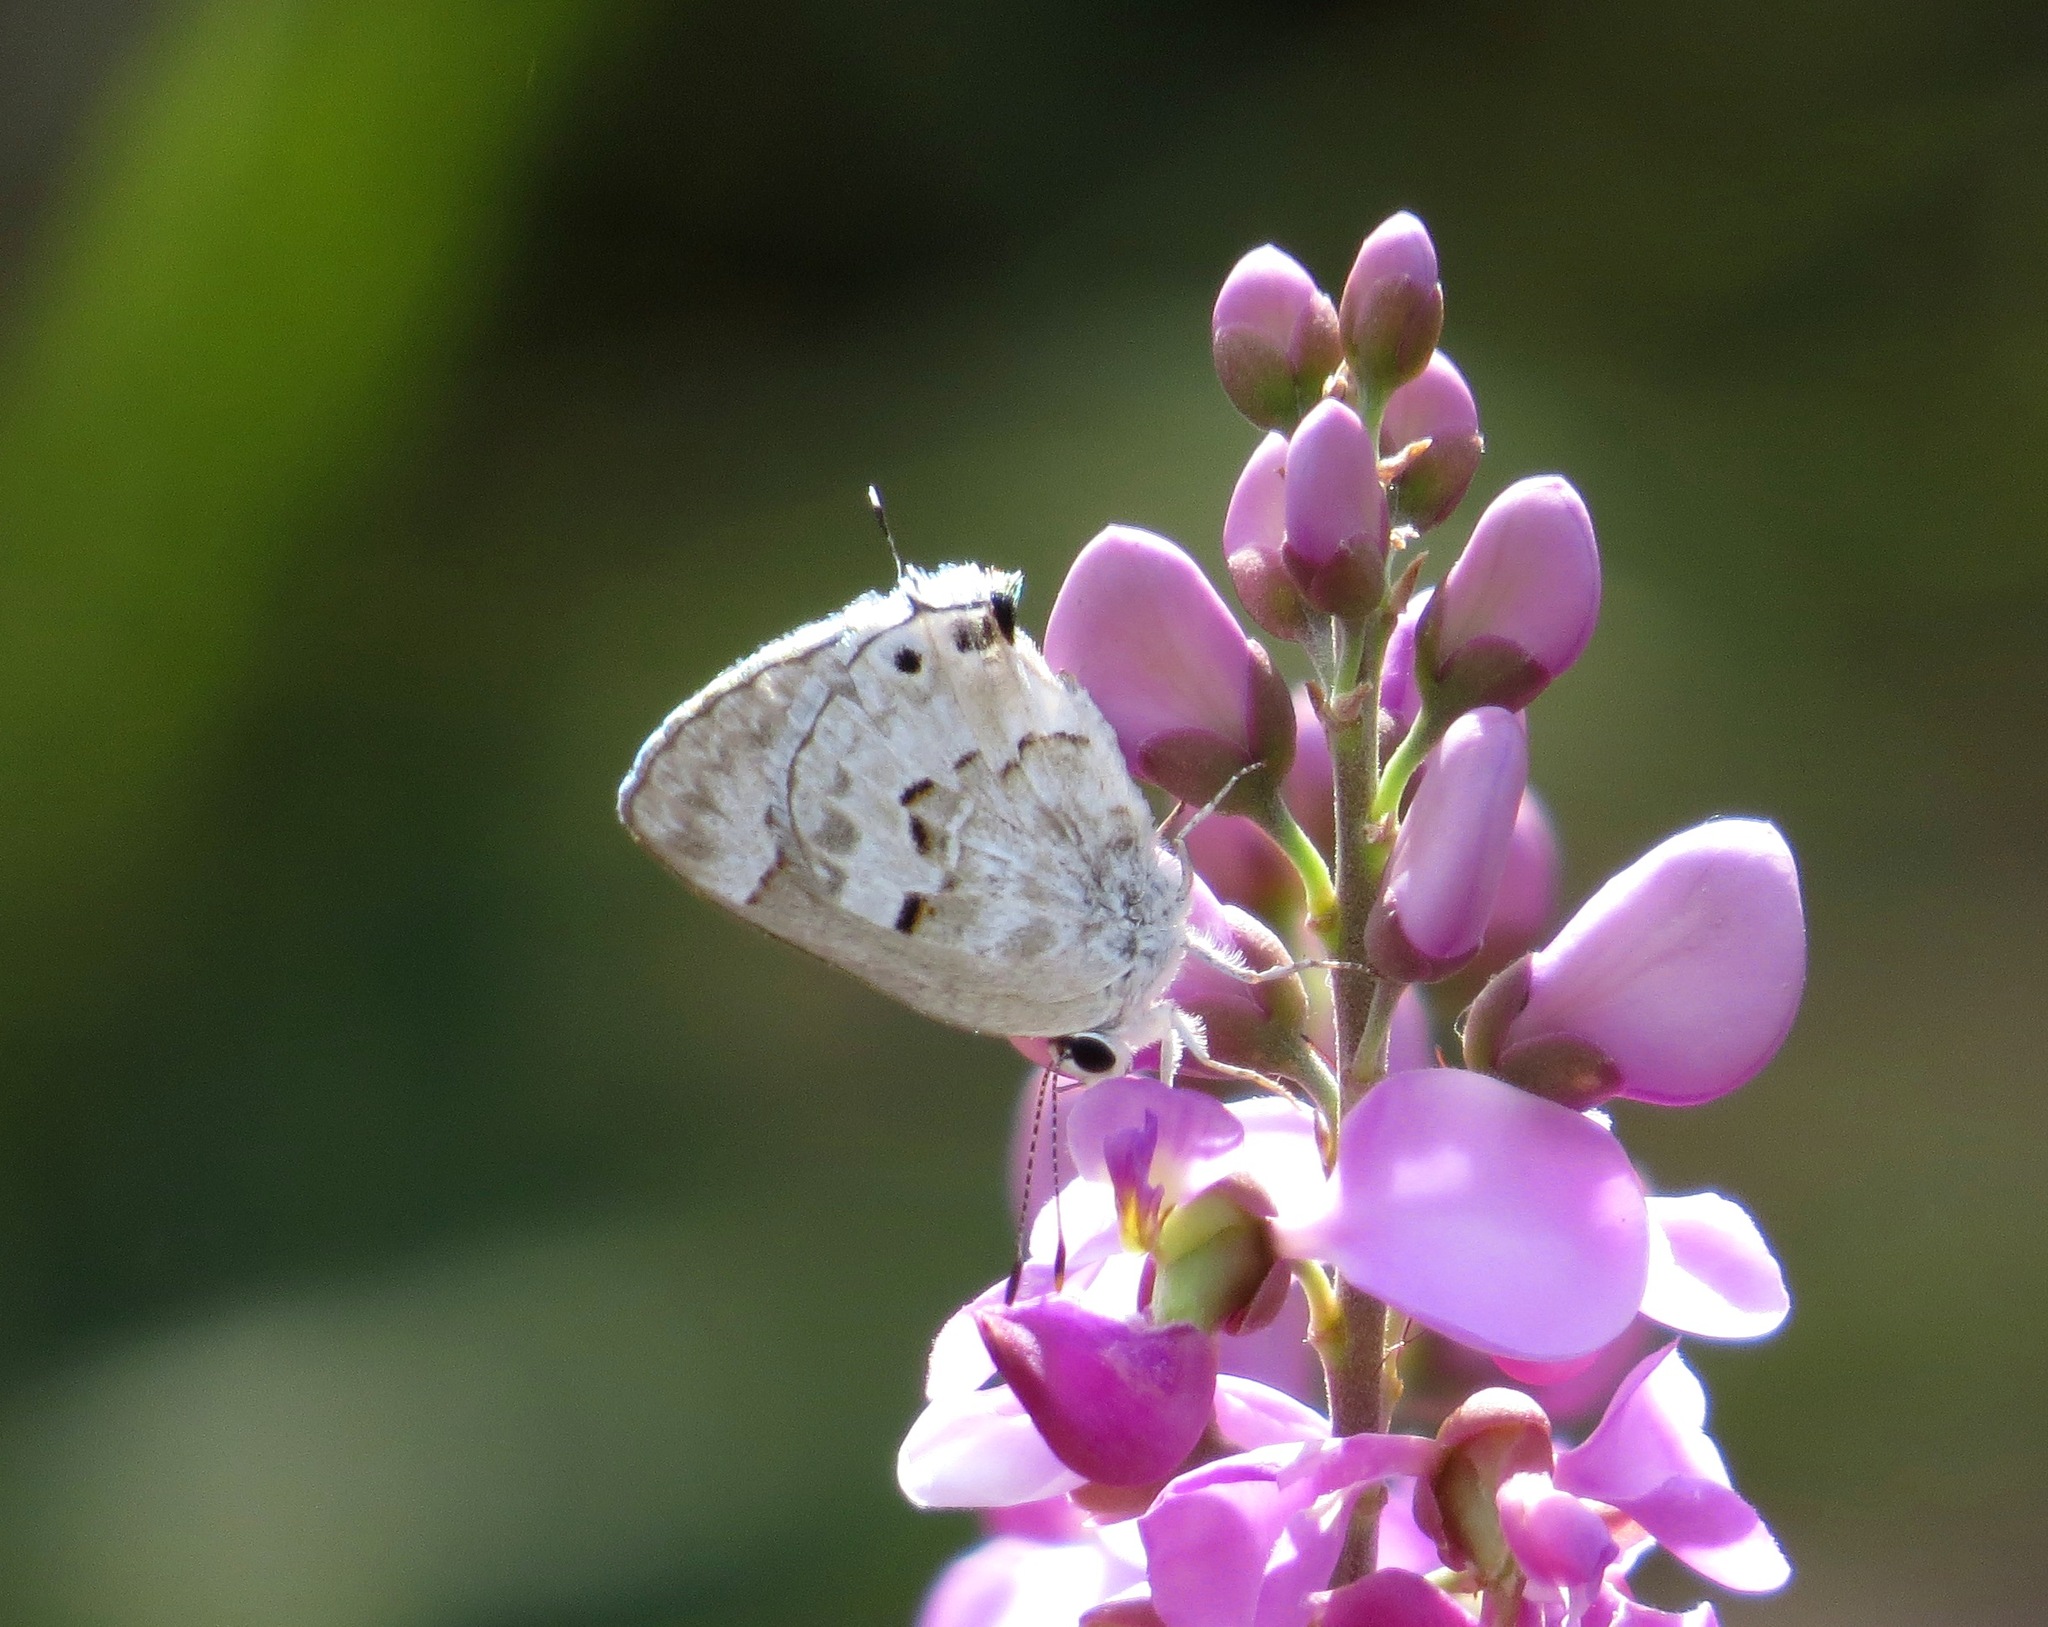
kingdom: Animalia
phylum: Arthropoda
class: Insecta
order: Lepidoptera
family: Lycaenidae
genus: Strymon
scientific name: Strymon mulucha
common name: Mottled scrub-hairstreak
